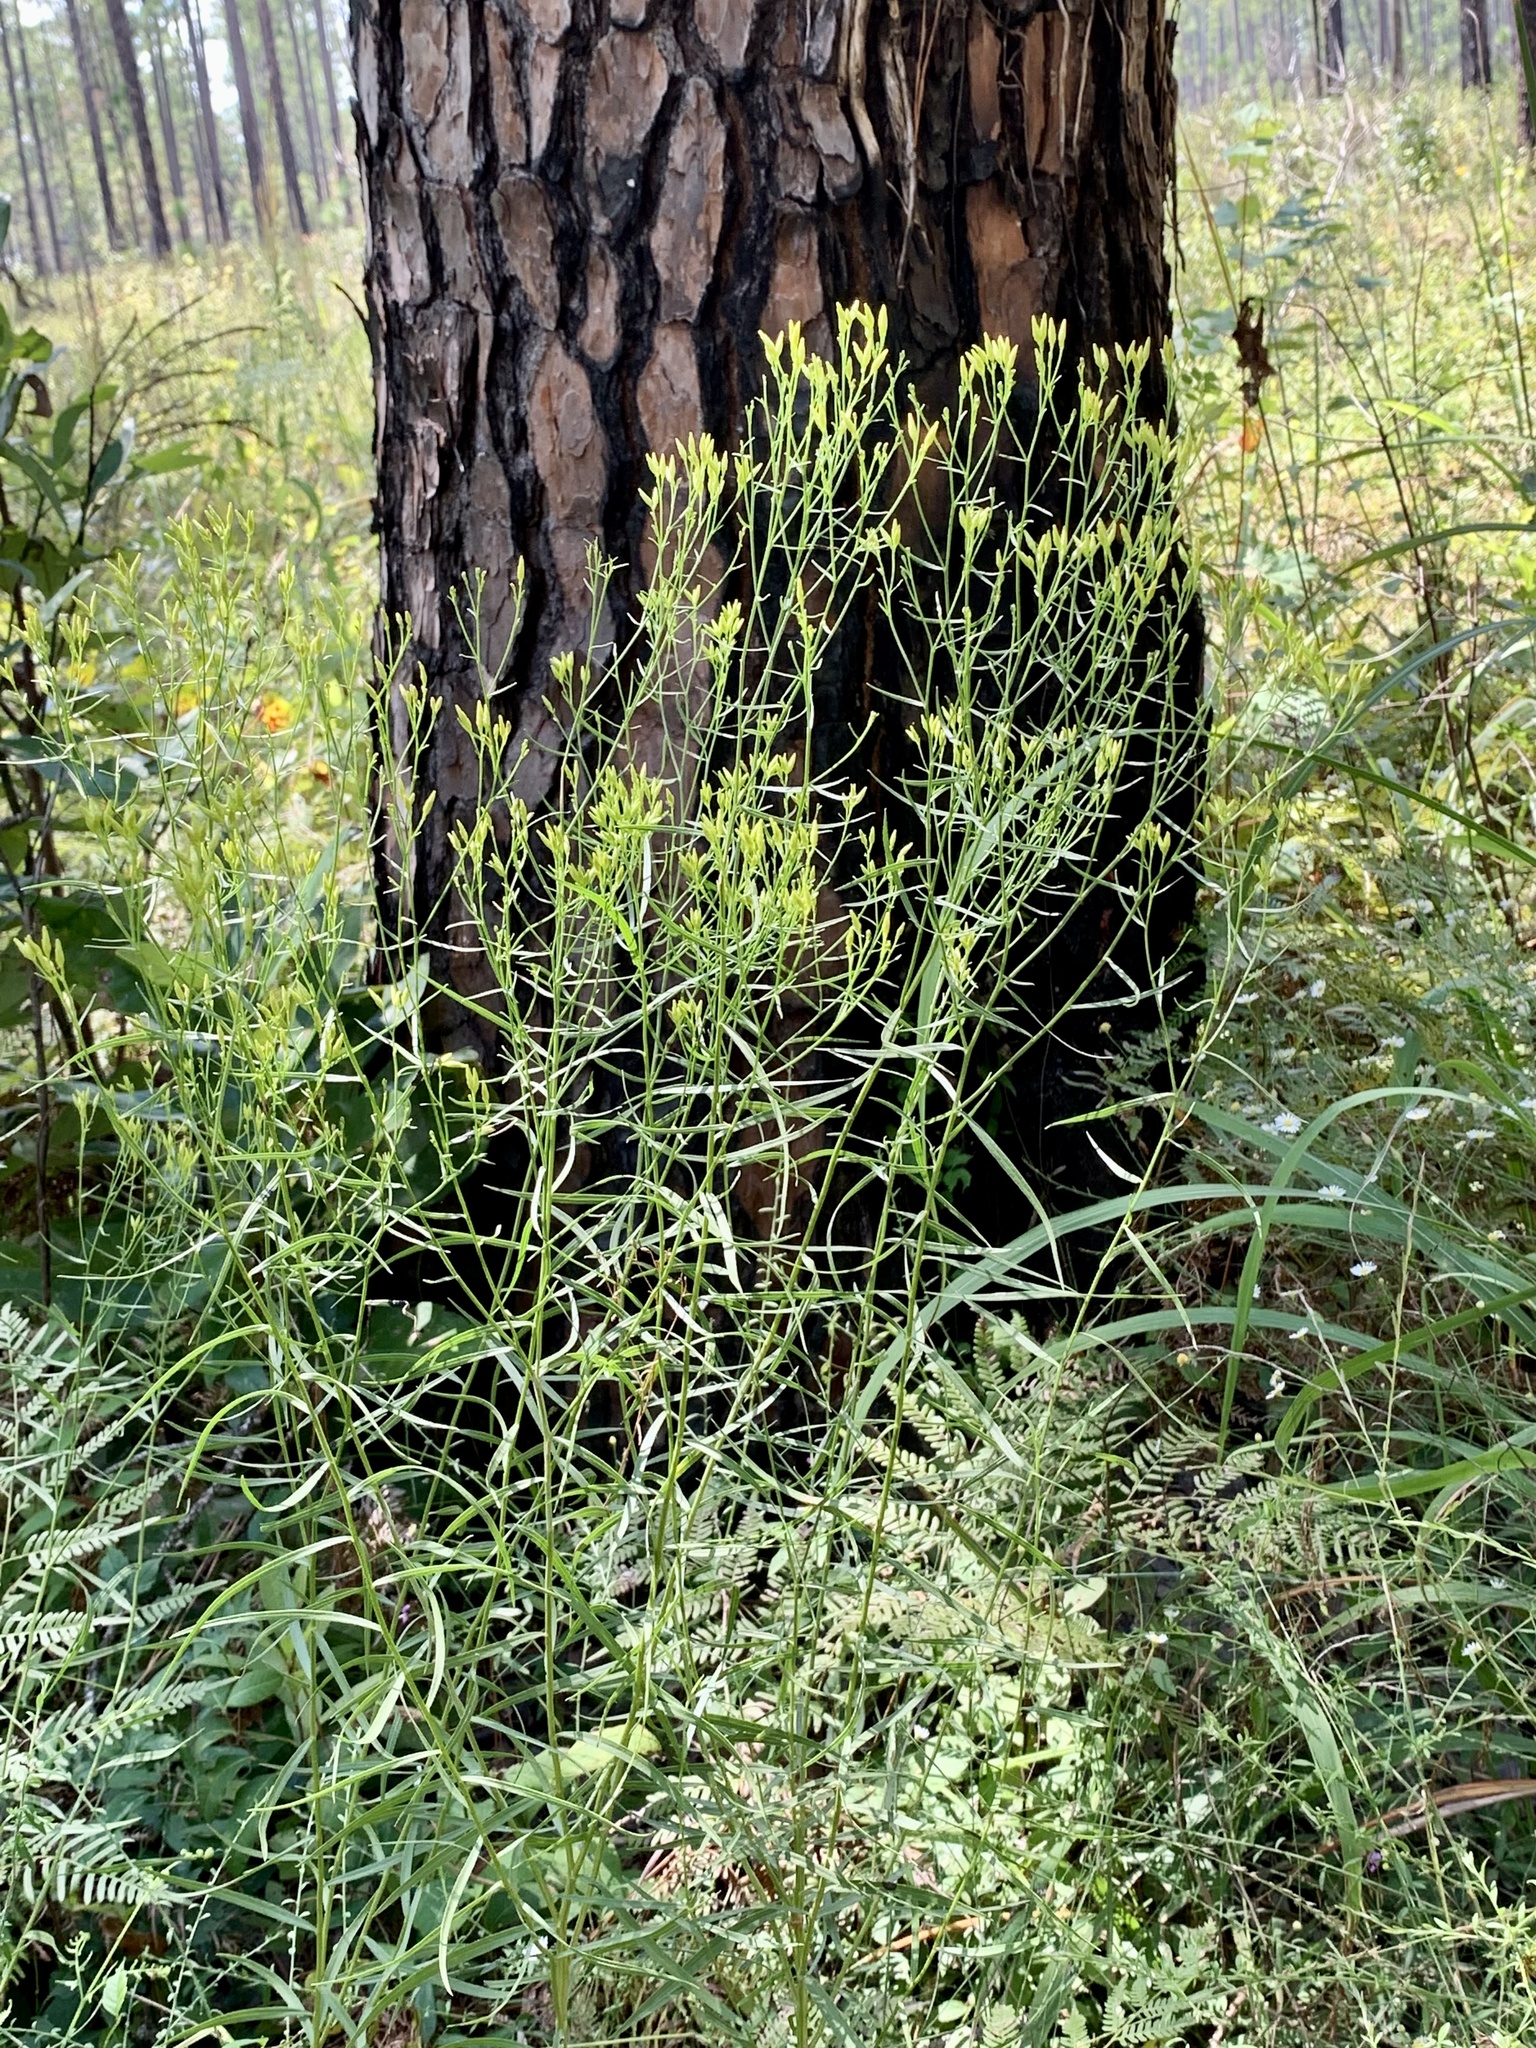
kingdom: Plantae
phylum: Tracheophyta
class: Magnoliopsida
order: Asterales
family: Asteraceae
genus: Euthamia
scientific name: Euthamia gymnospermoides
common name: Great plains goldentop
